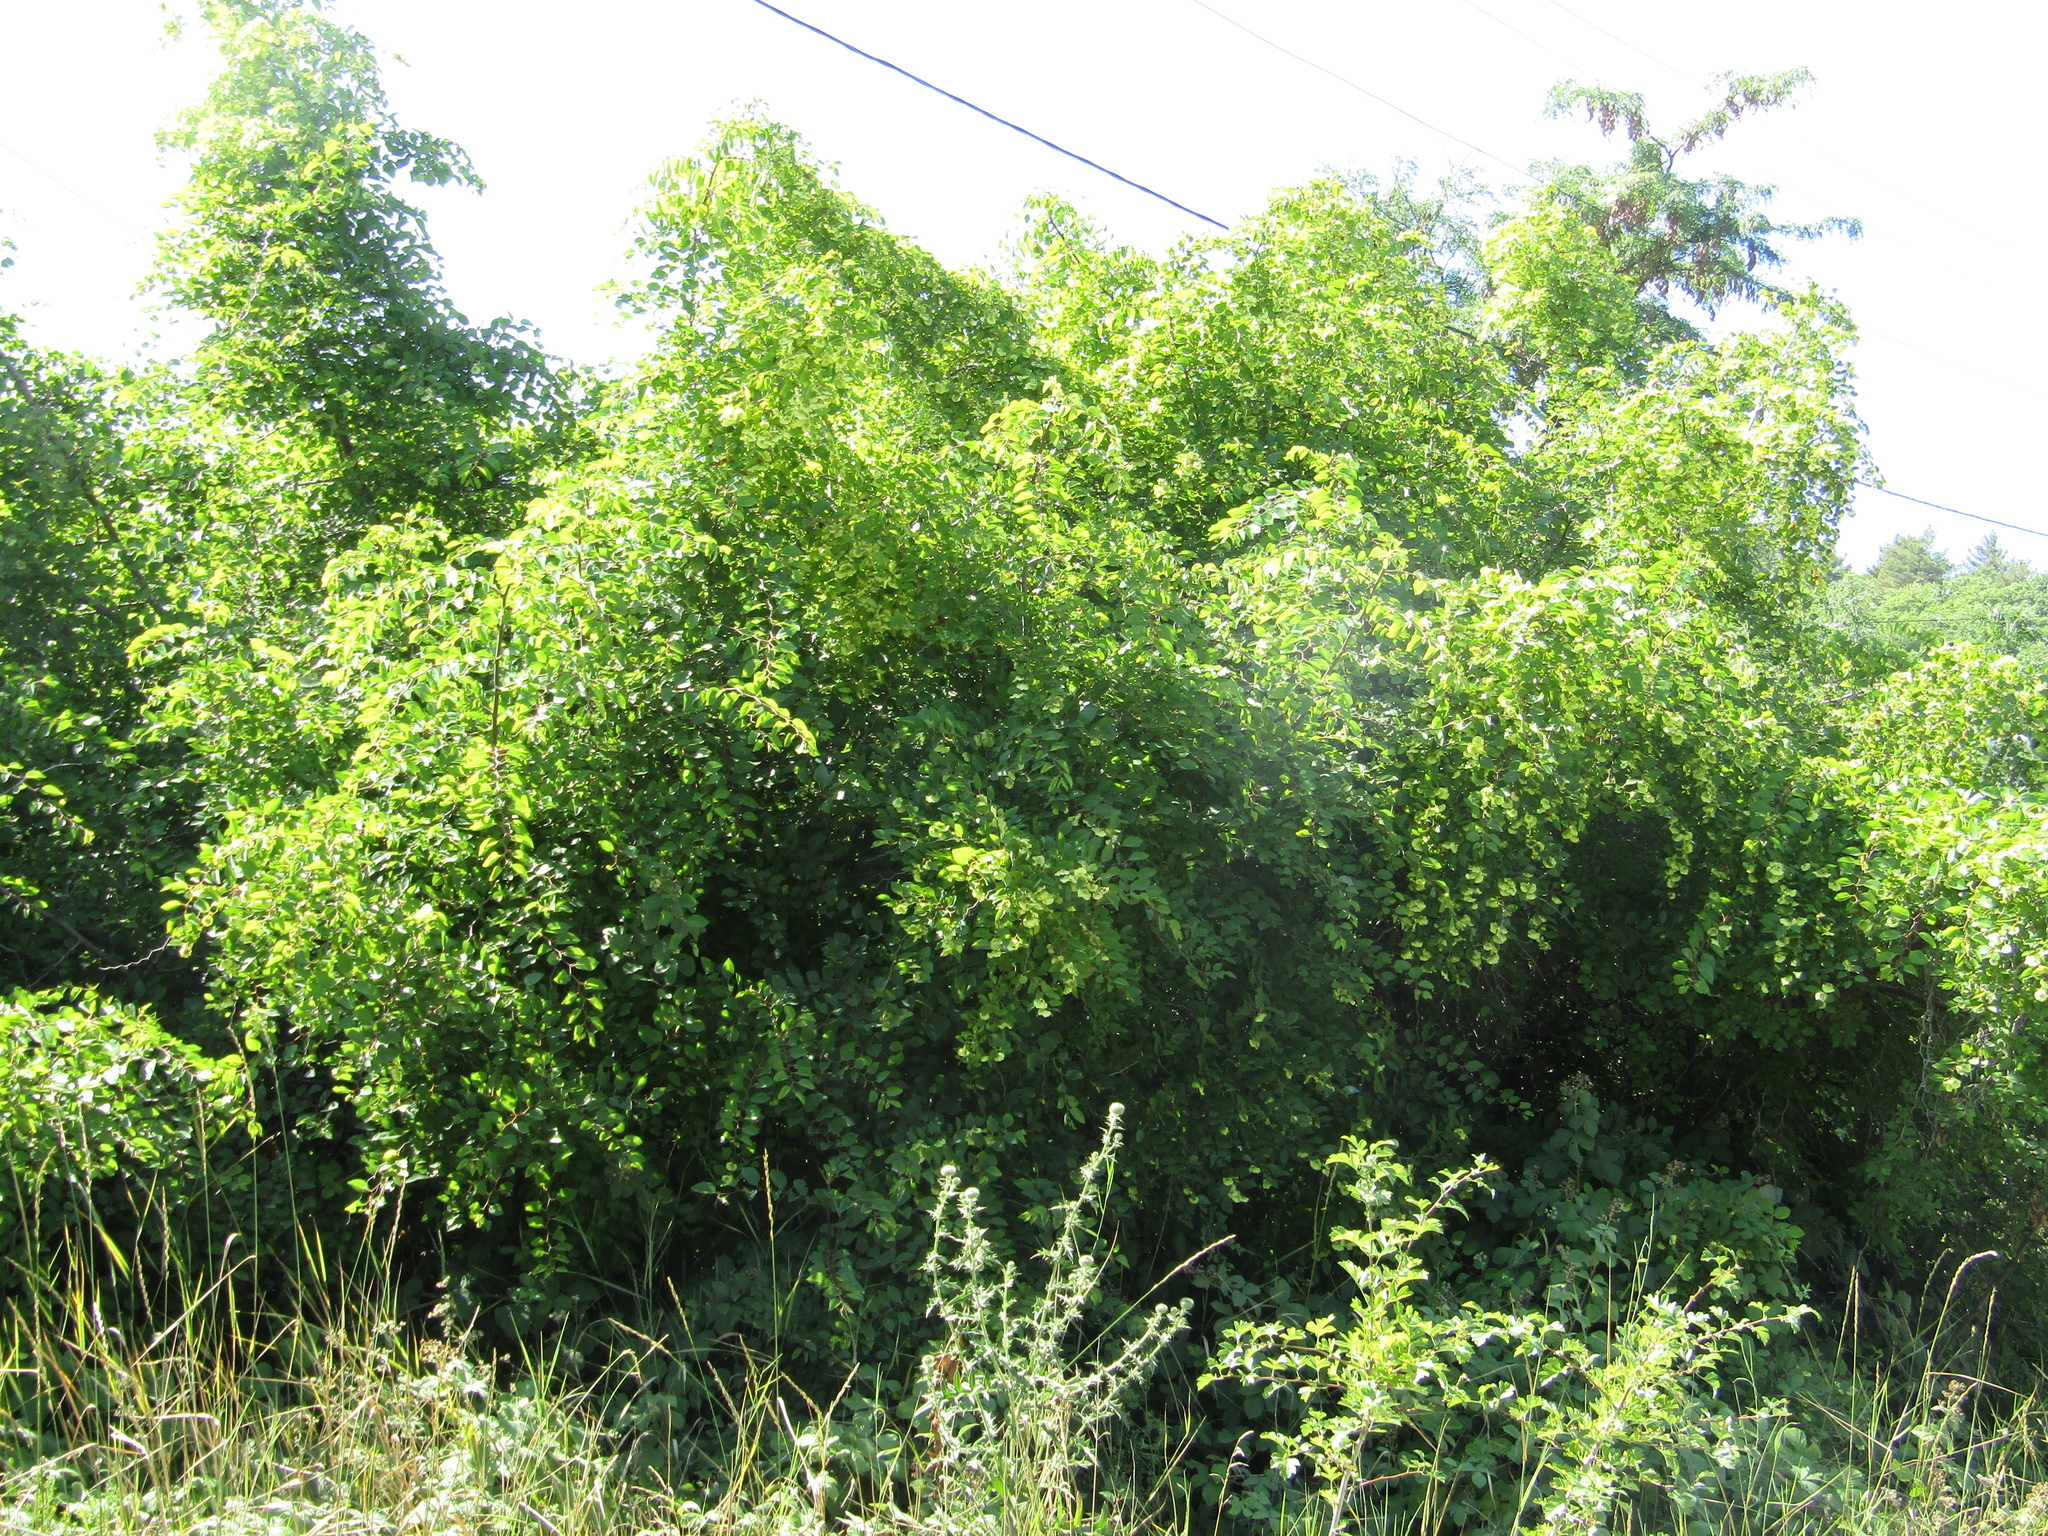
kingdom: Plantae
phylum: Tracheophyta
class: Magnoliopsida
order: Rosales
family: Rhamnaceae
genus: Paliurus
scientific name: Paliurus spina-christi
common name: Jeruselem thorn
